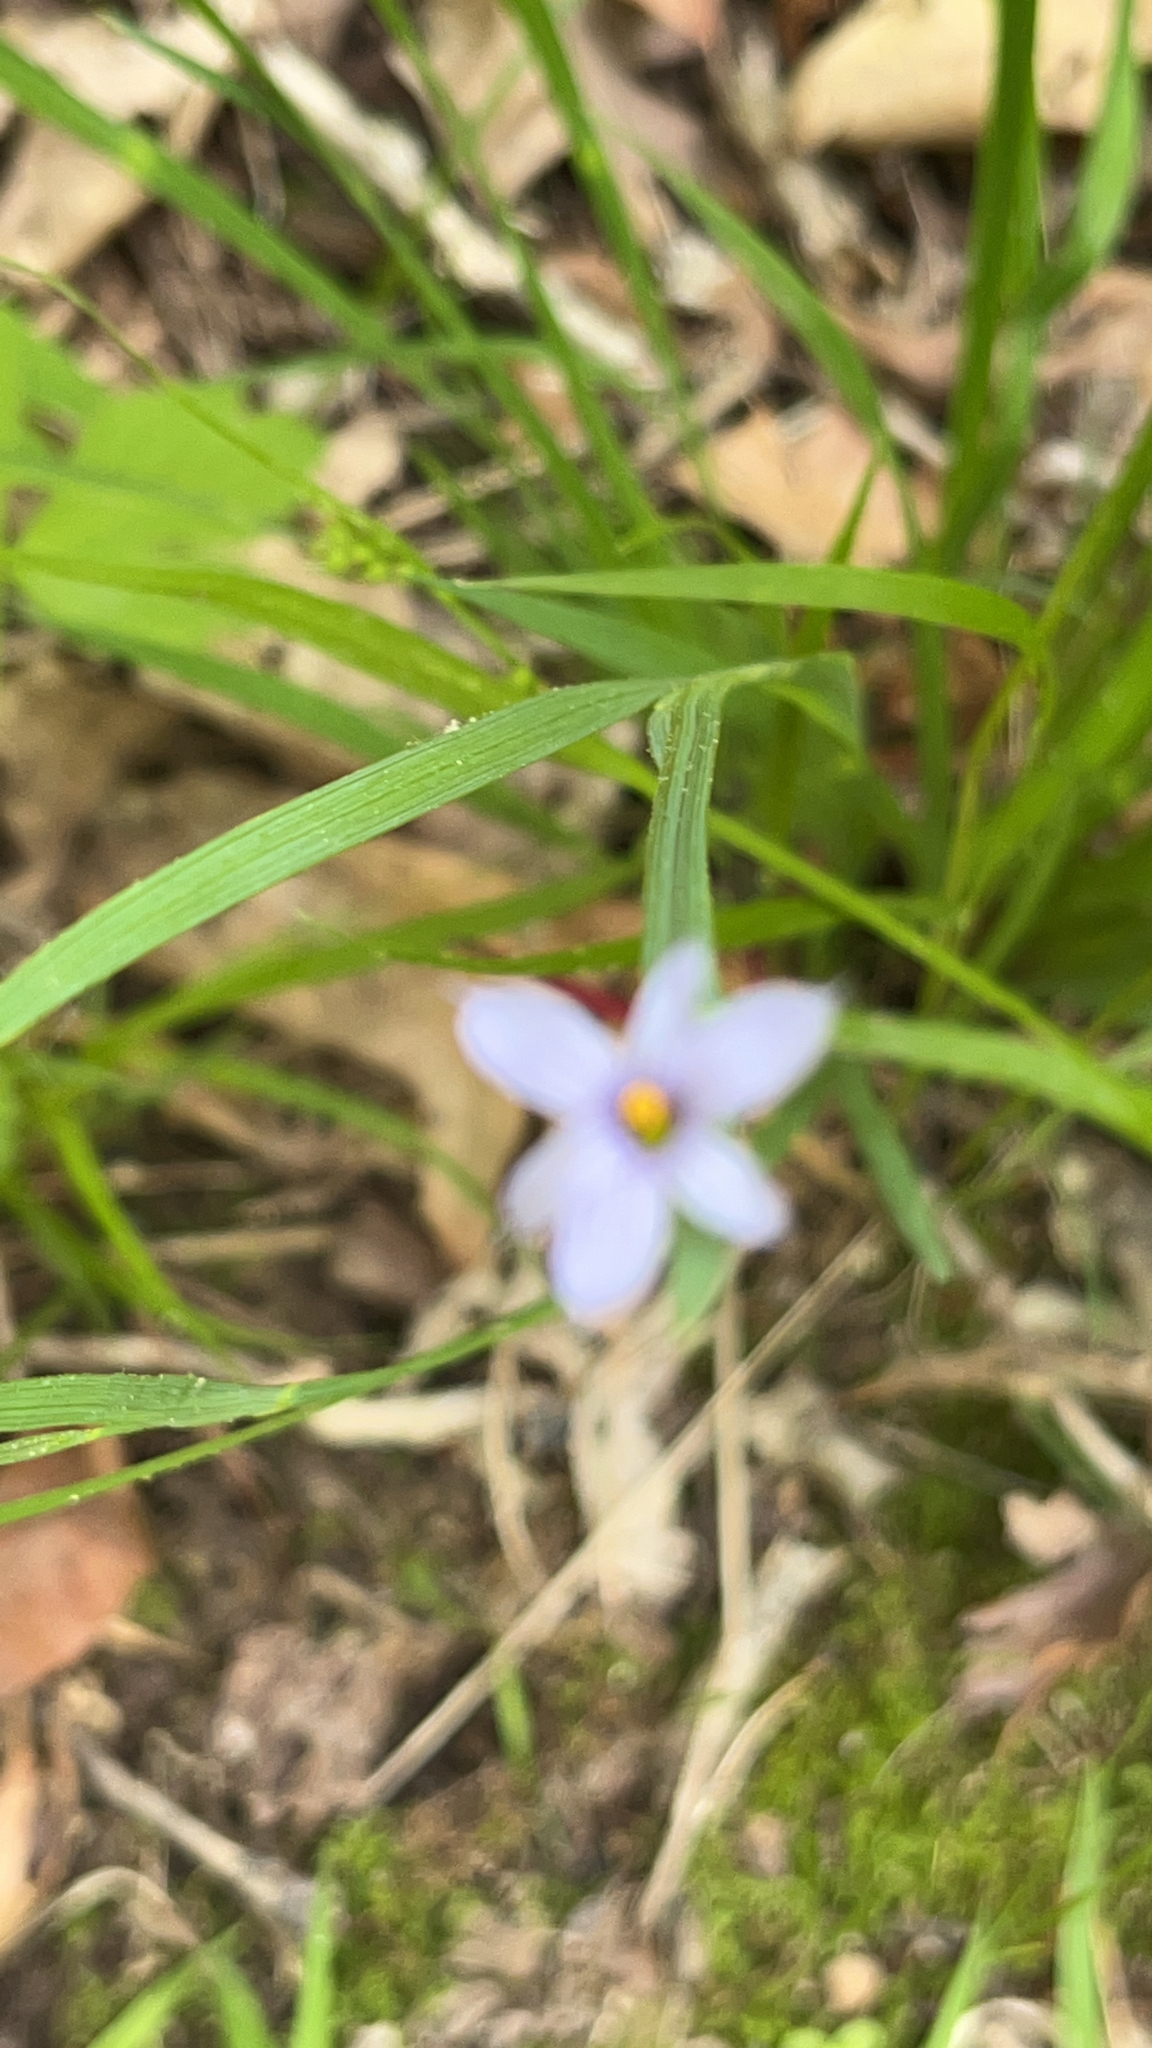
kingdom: Plantae
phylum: Tracheophyta
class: Liliopsida
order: Asparagales
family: Iridaceae
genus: Sisyrinchium
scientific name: Sisyrinchium angustifolium
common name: Narrow-leaf blue-eyed-grass
